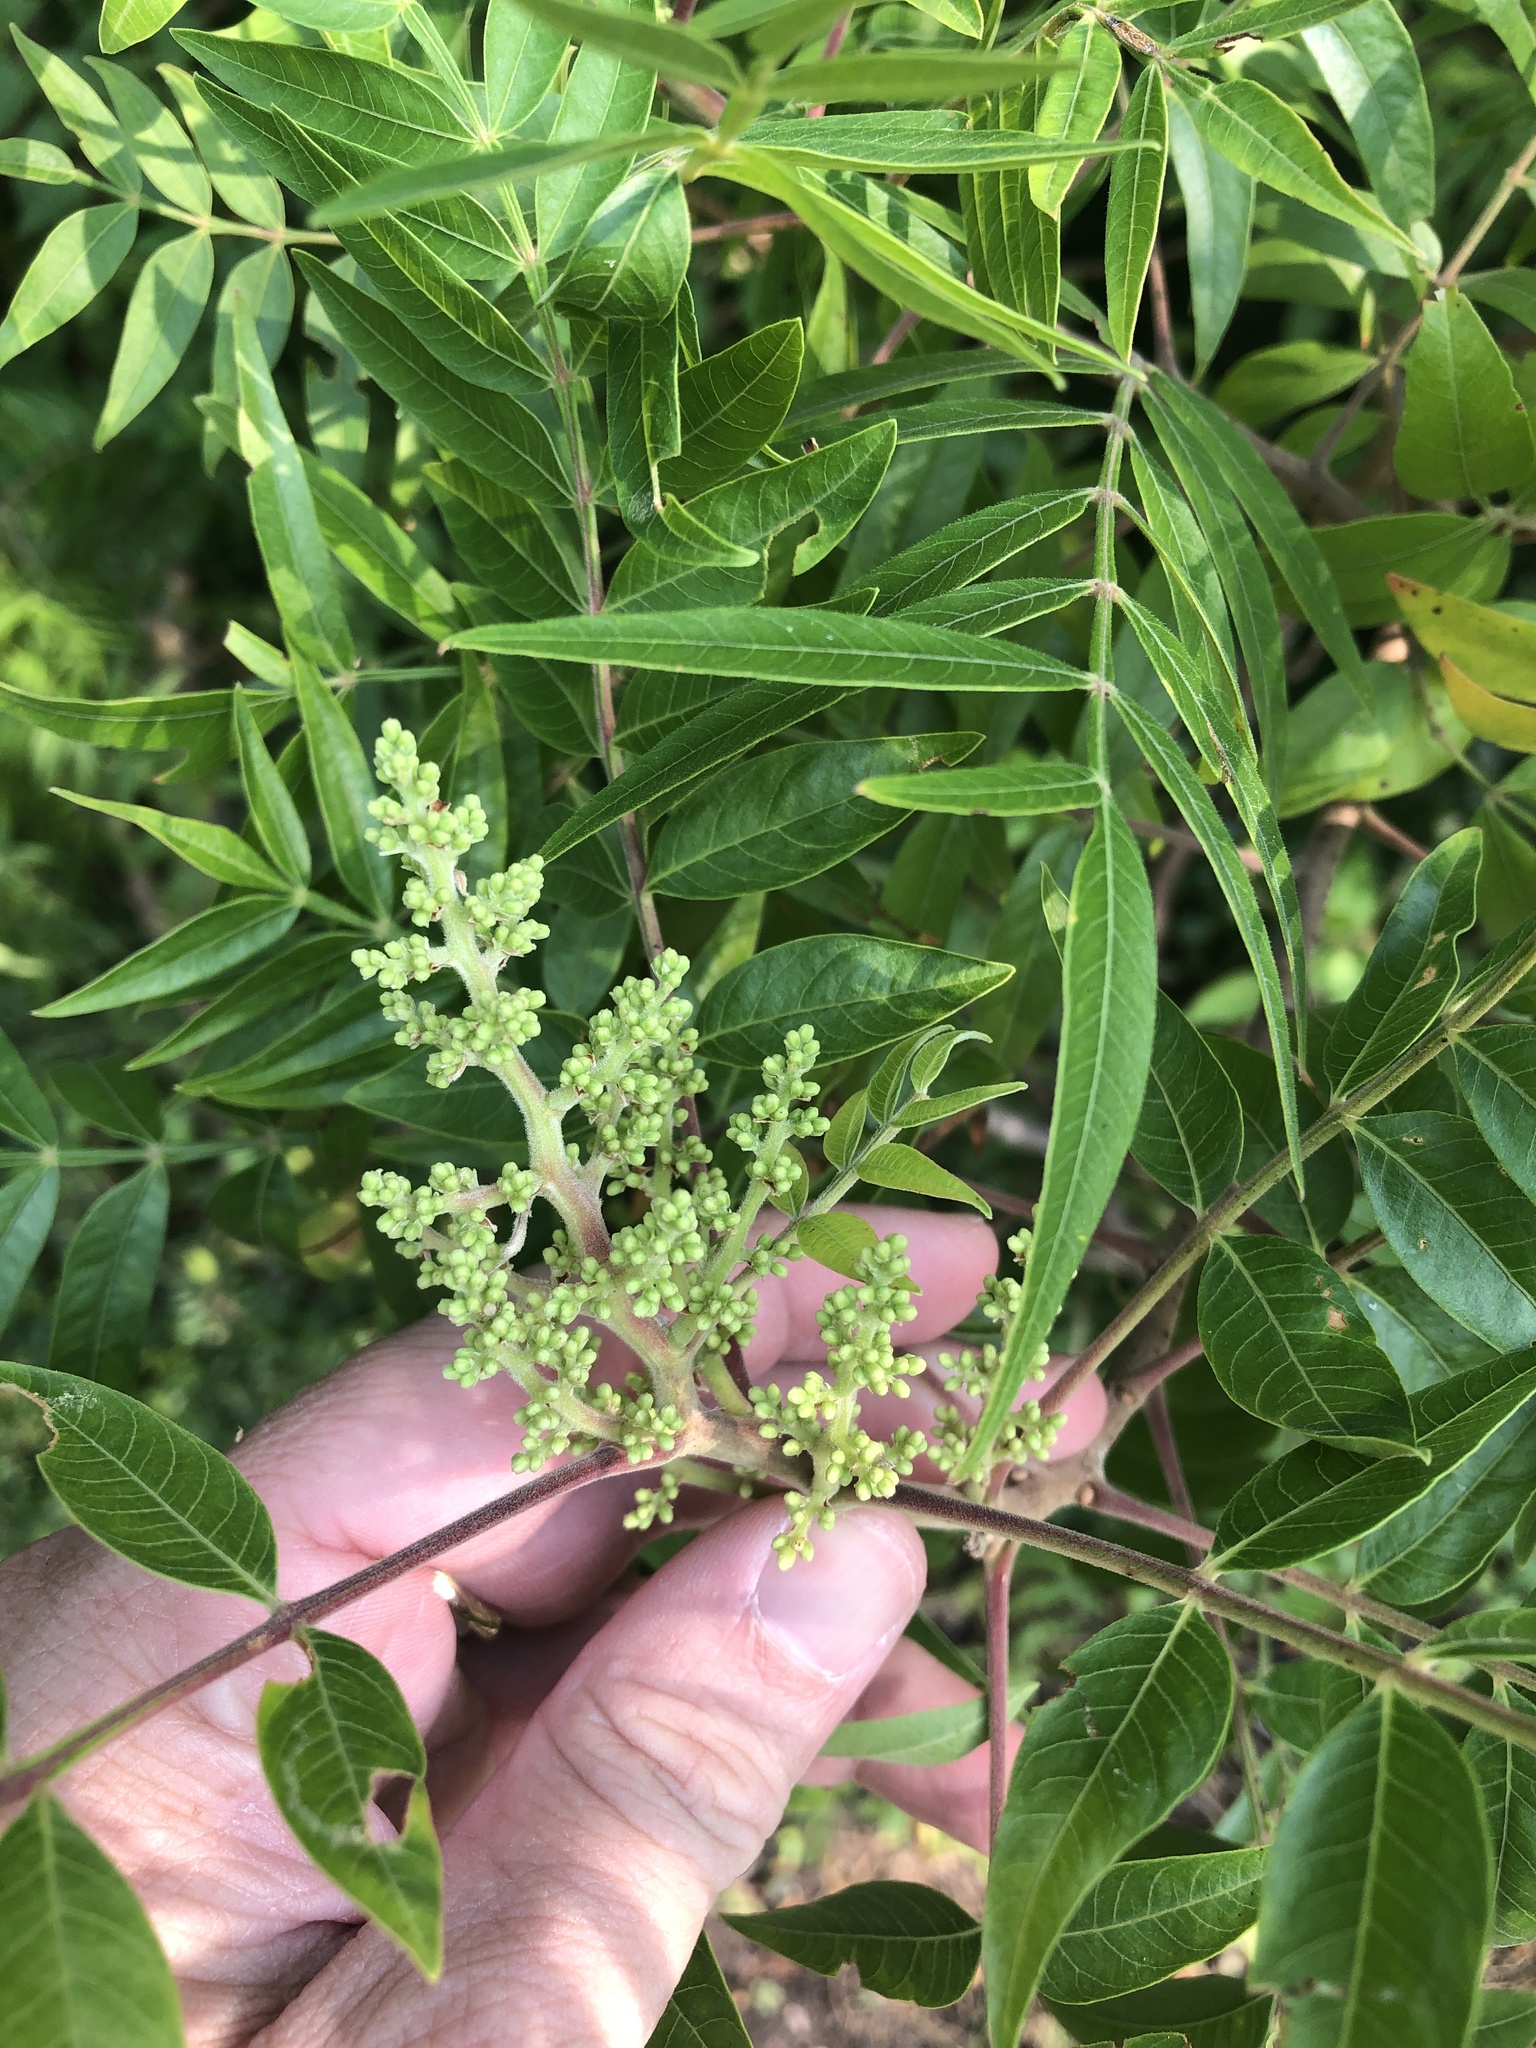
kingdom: Plantae
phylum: Tracheophyta
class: Magnoliopsida
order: Sapindales
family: Sapindaceae
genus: Sapindus
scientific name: Sapindus drummondii
